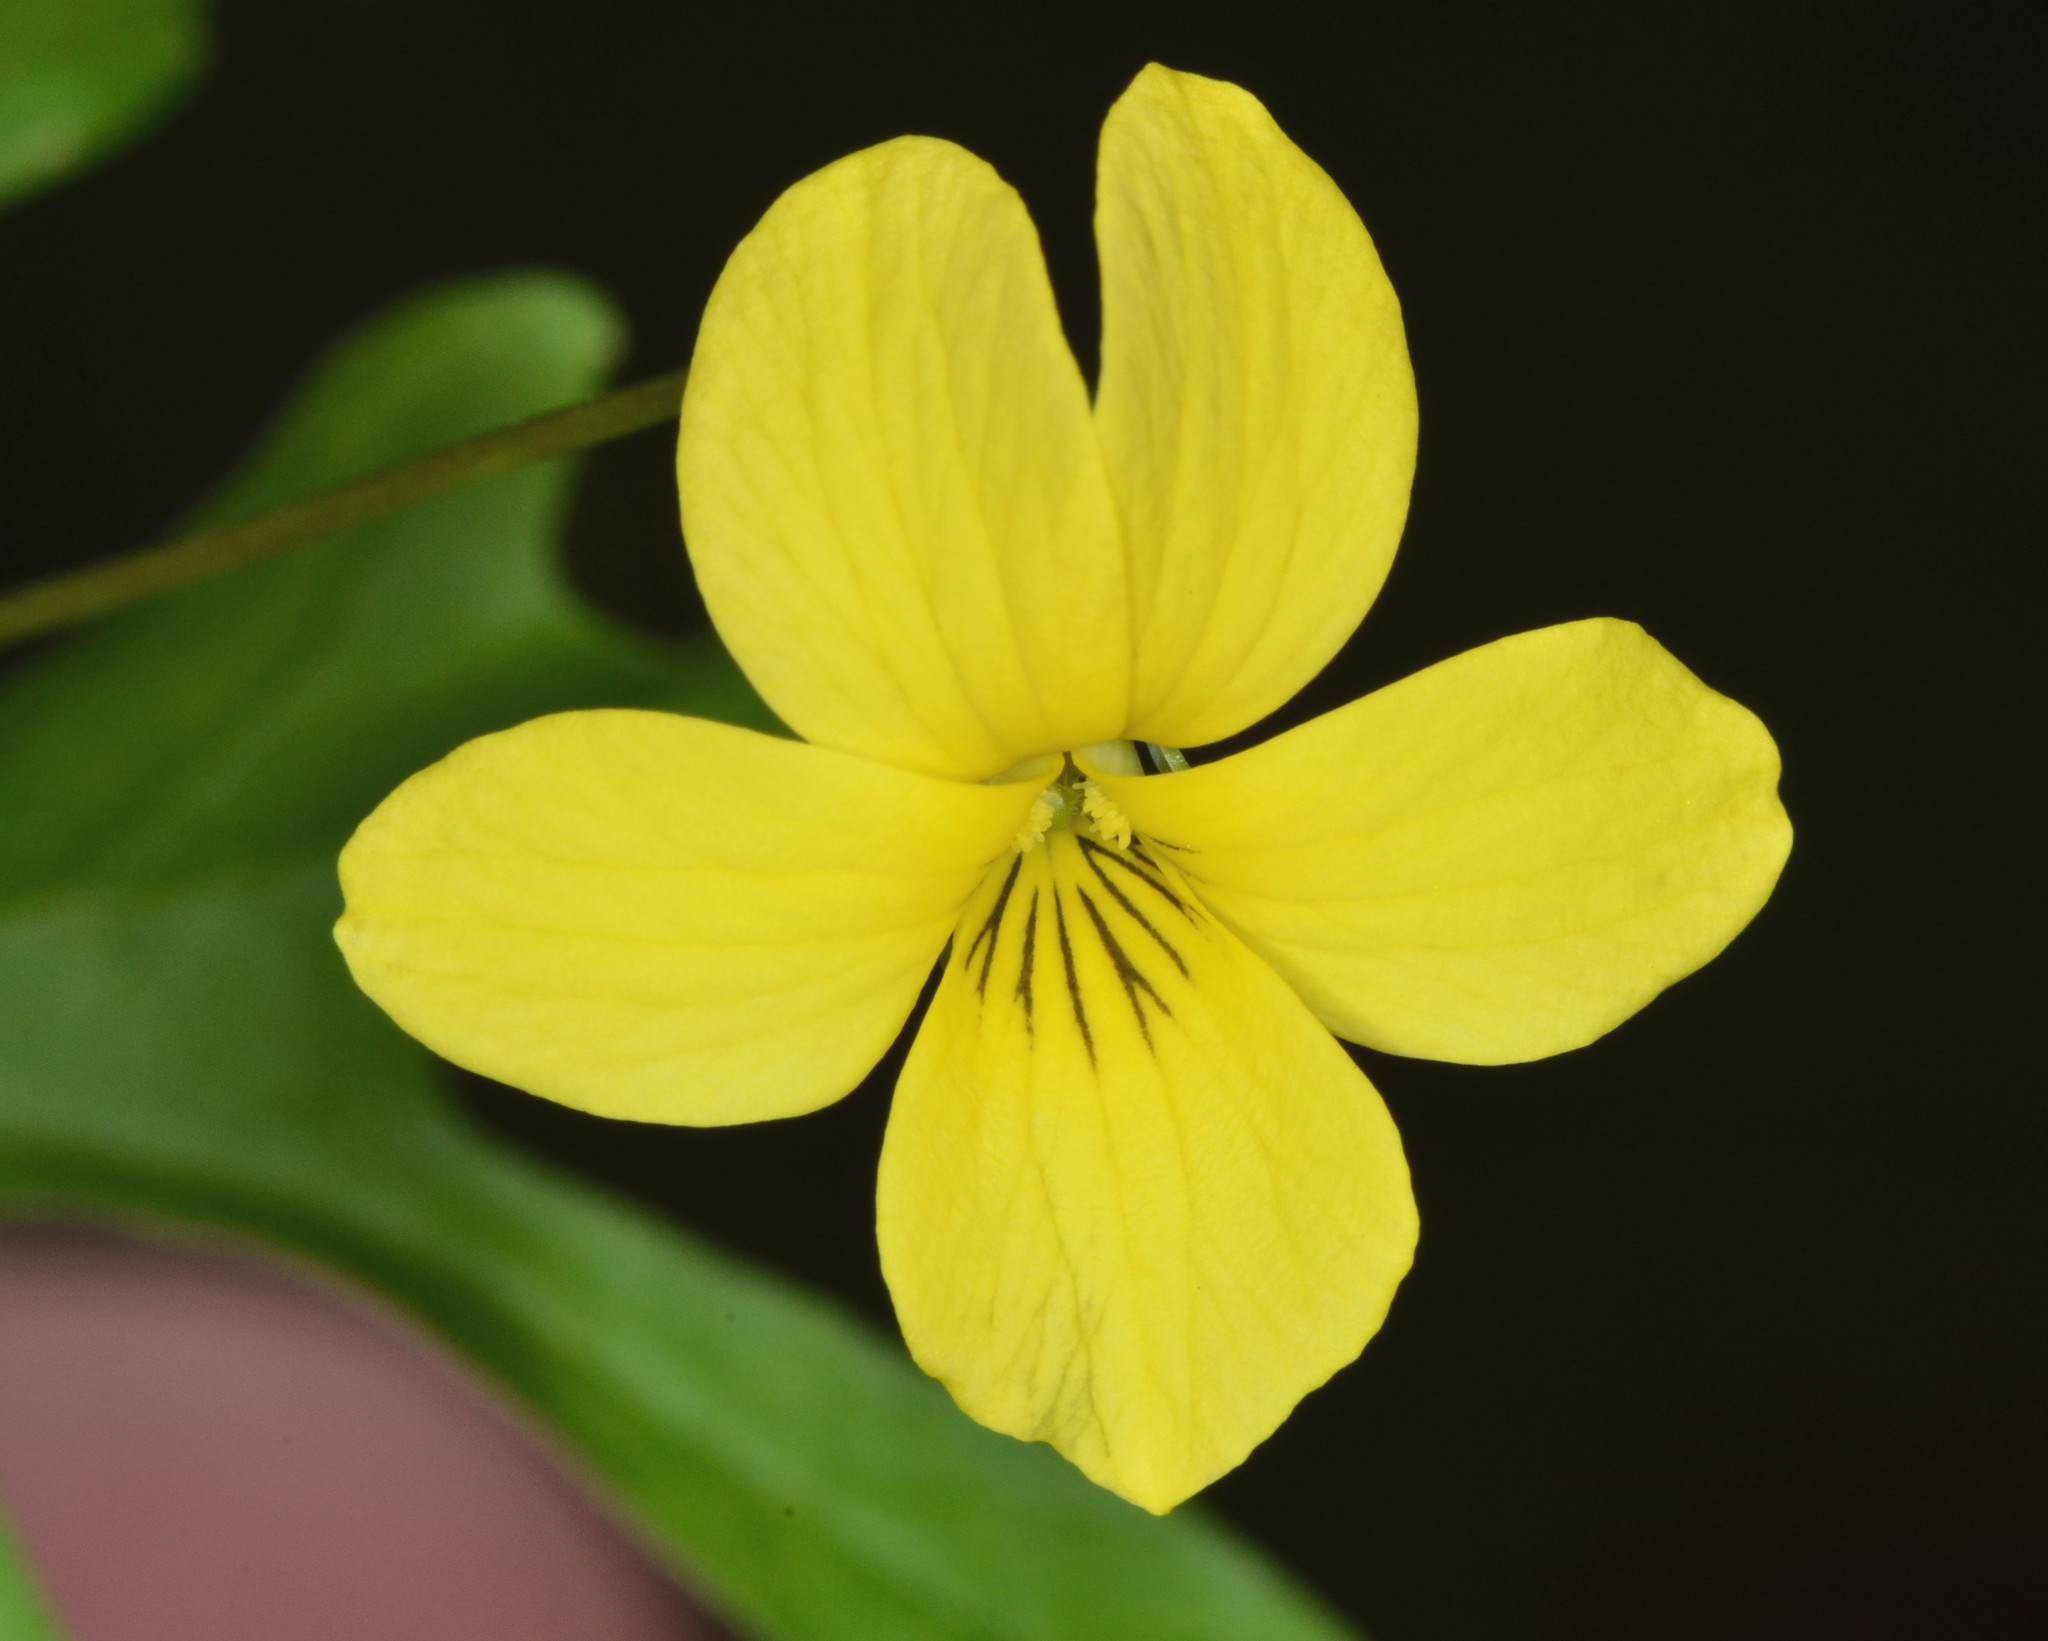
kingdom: Plantae
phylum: Tracheophyta
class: Magnoliopsida
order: Malpighiales
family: Violaceae
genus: Viola
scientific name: Viola lobata
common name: Pine violet
